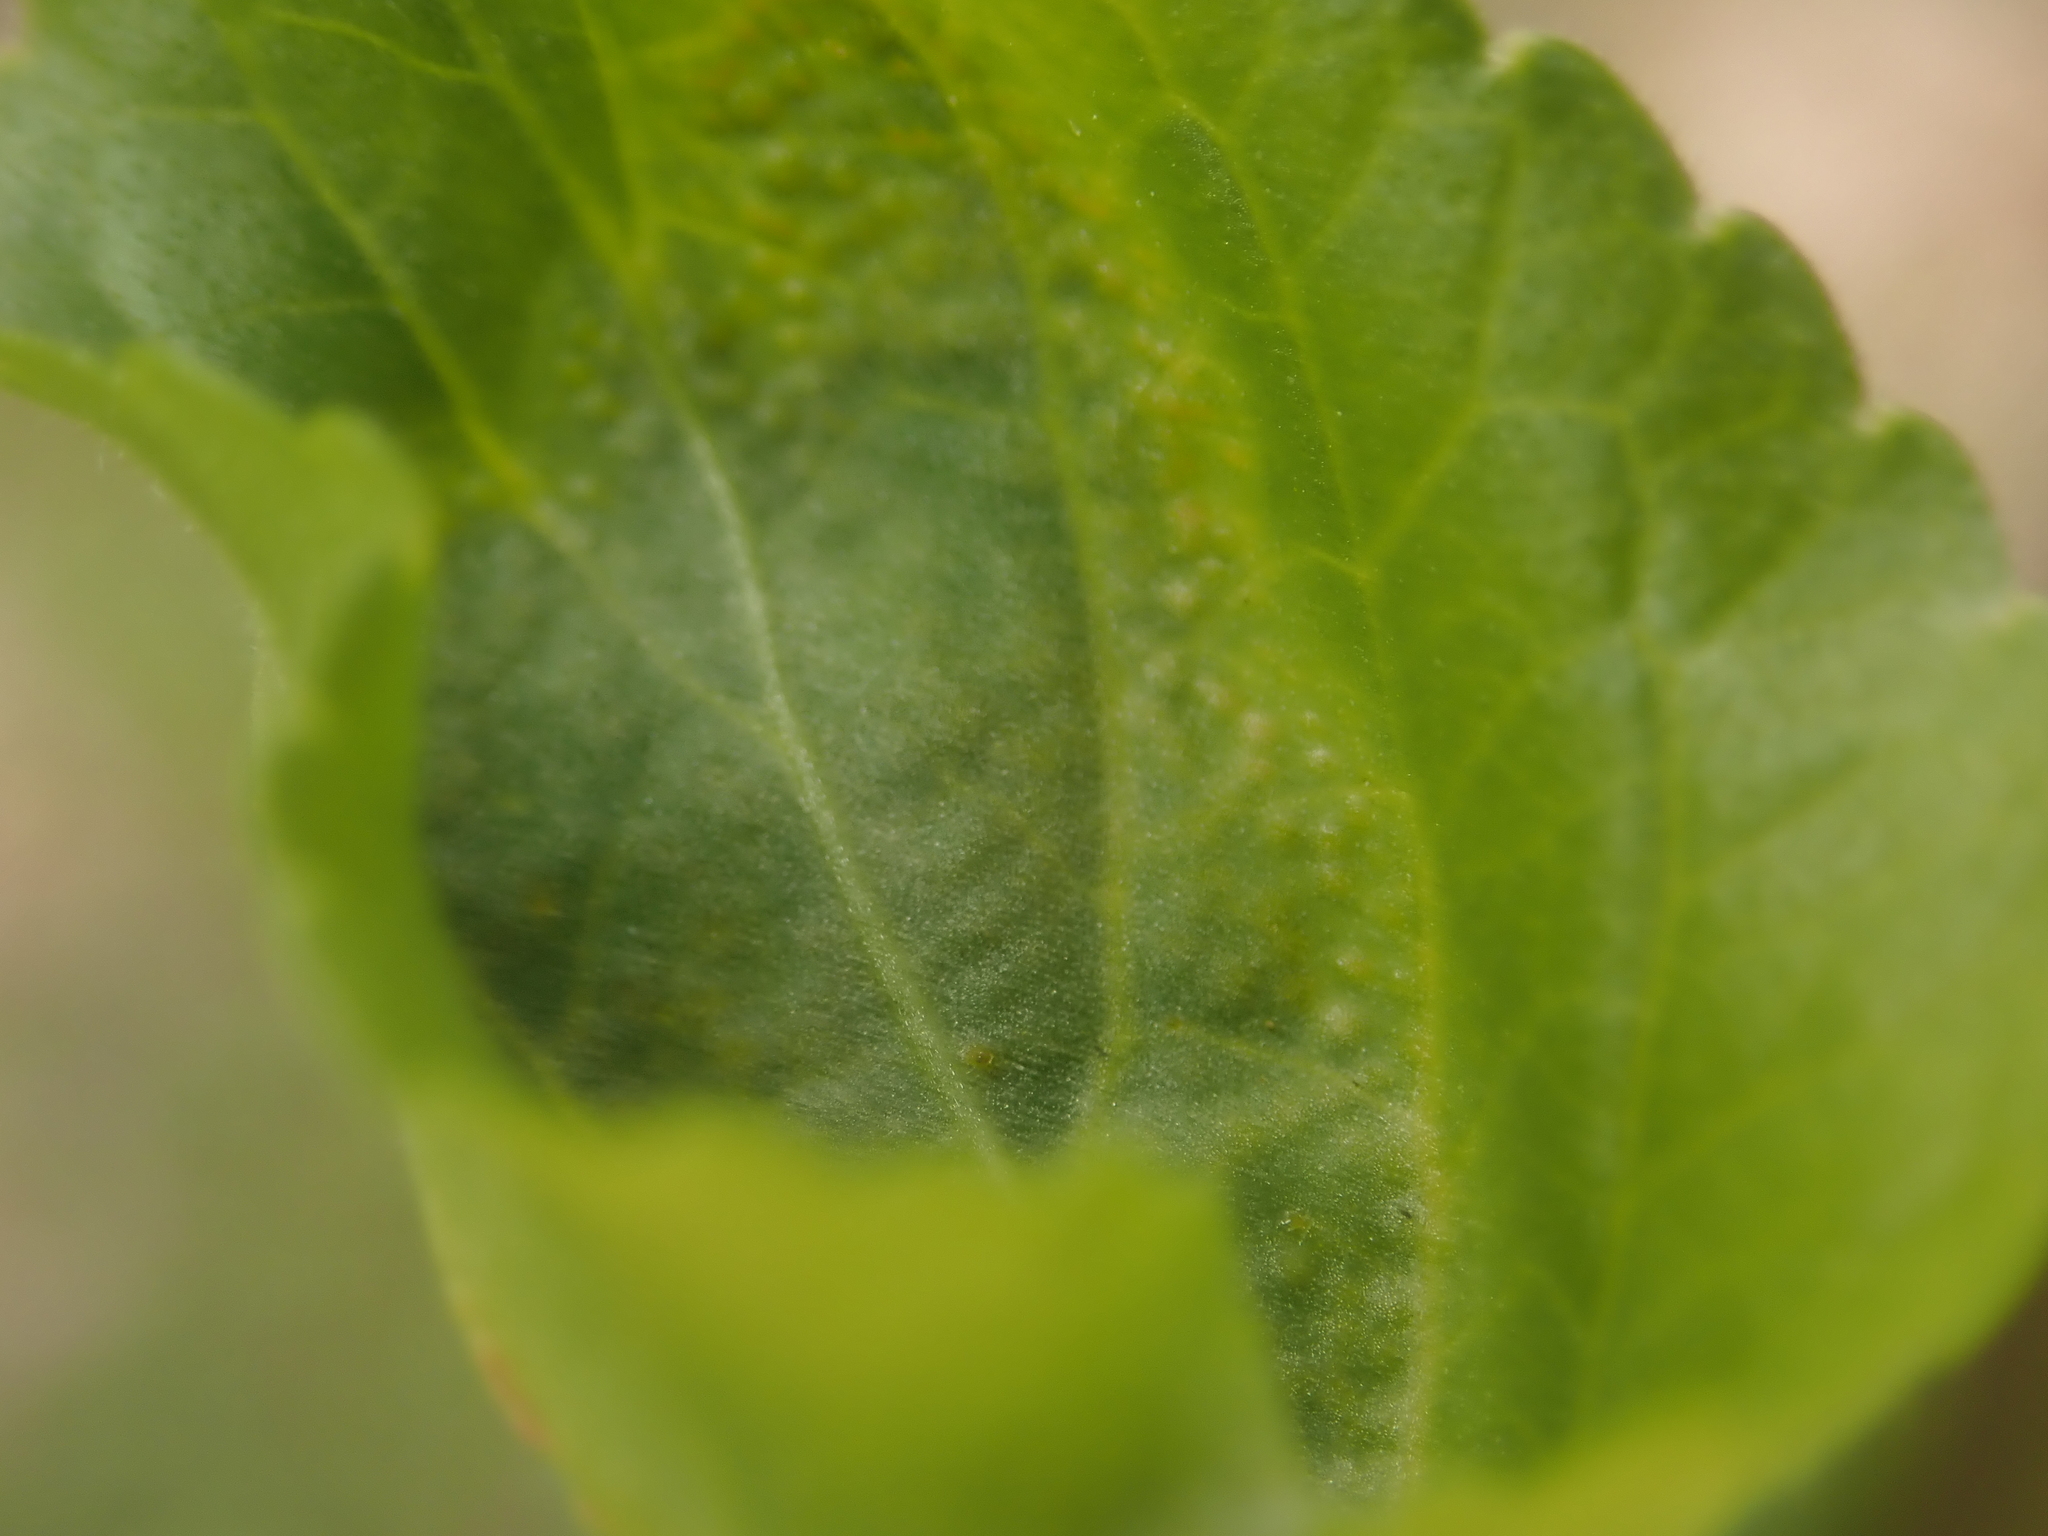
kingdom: Fungi
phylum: Basidiomycota
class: Pucciniomycetes
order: Pucciniales
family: Pucciniaceae
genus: Puccinia
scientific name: Puccinia violae
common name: Violet rust
